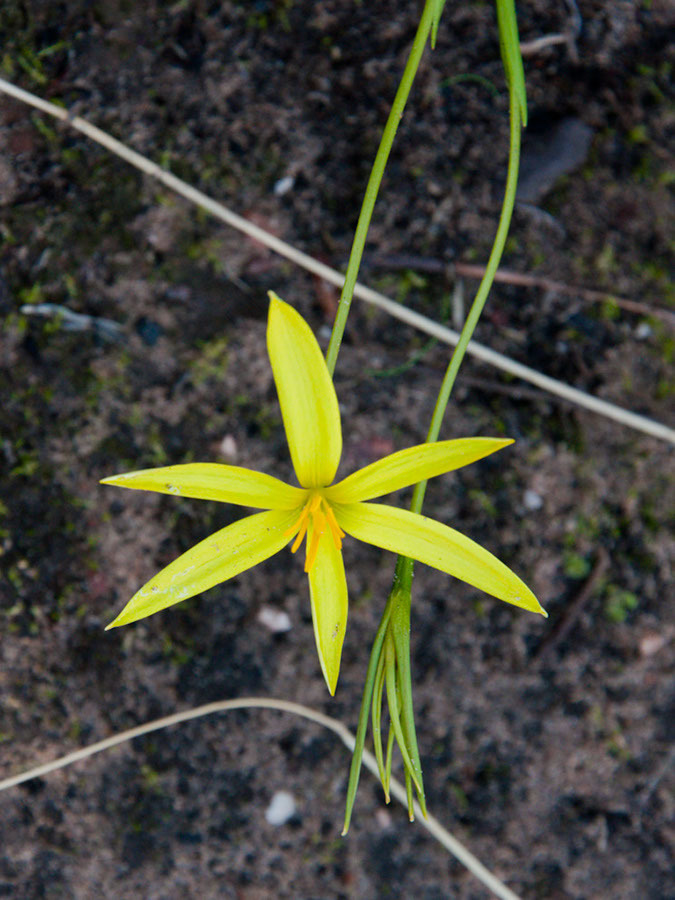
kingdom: Plantae
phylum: Tracheophyta
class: Liliopsida
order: Asparagales
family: Hypoxidaceae
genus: Empodium
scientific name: Empodium plicatum
